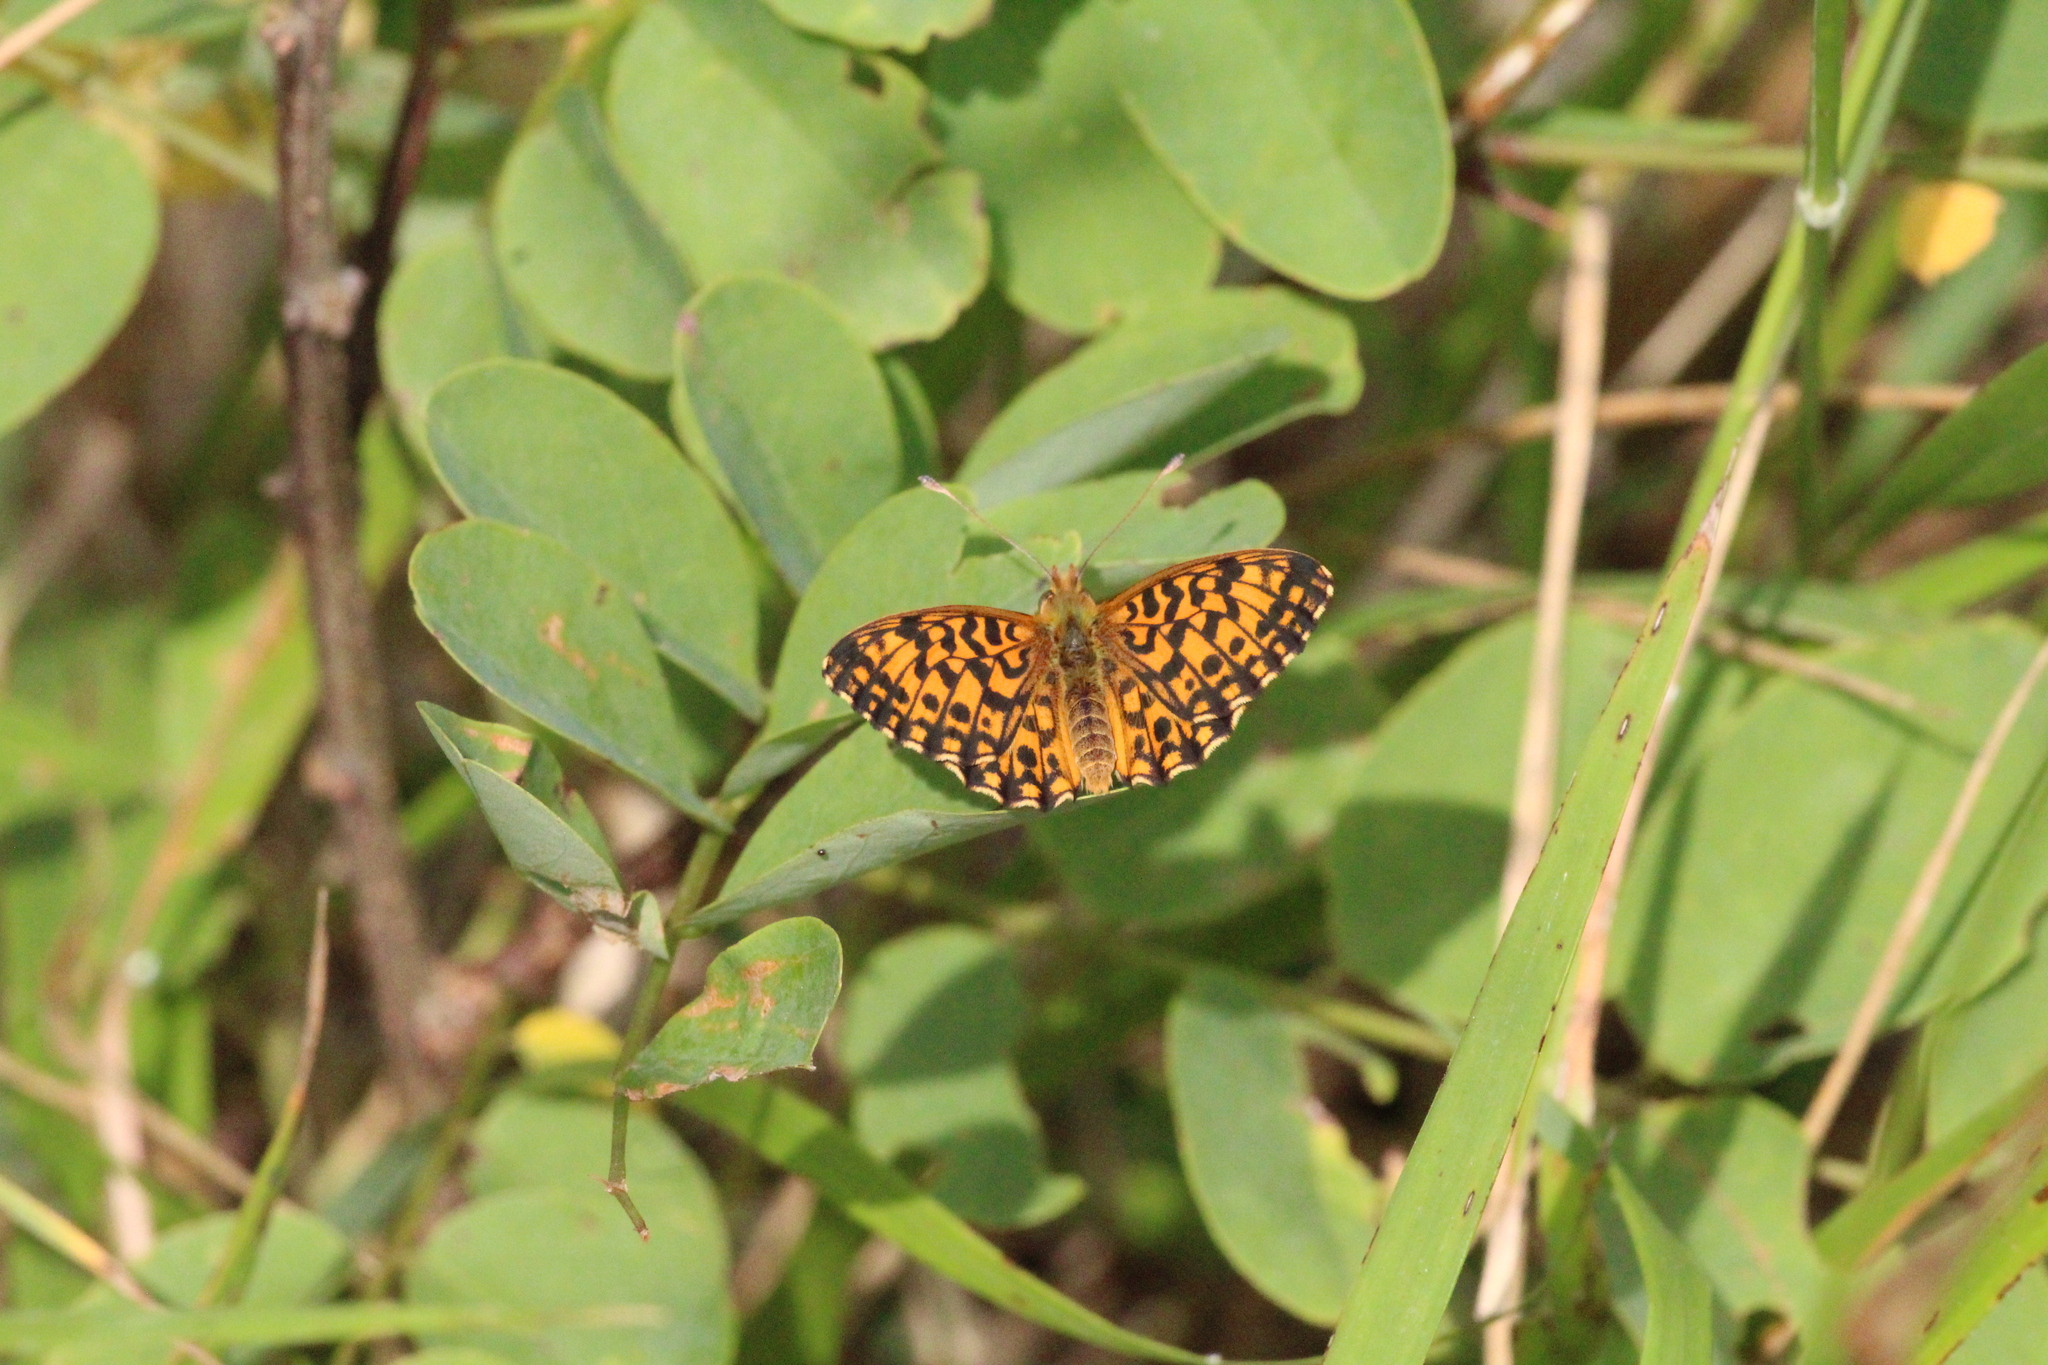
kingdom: Animalia
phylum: Arthropoda
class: Insecta
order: Lepidoptera
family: Nymphalidae
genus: Boloria
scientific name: Boloria dia
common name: Weaver's fritillary
